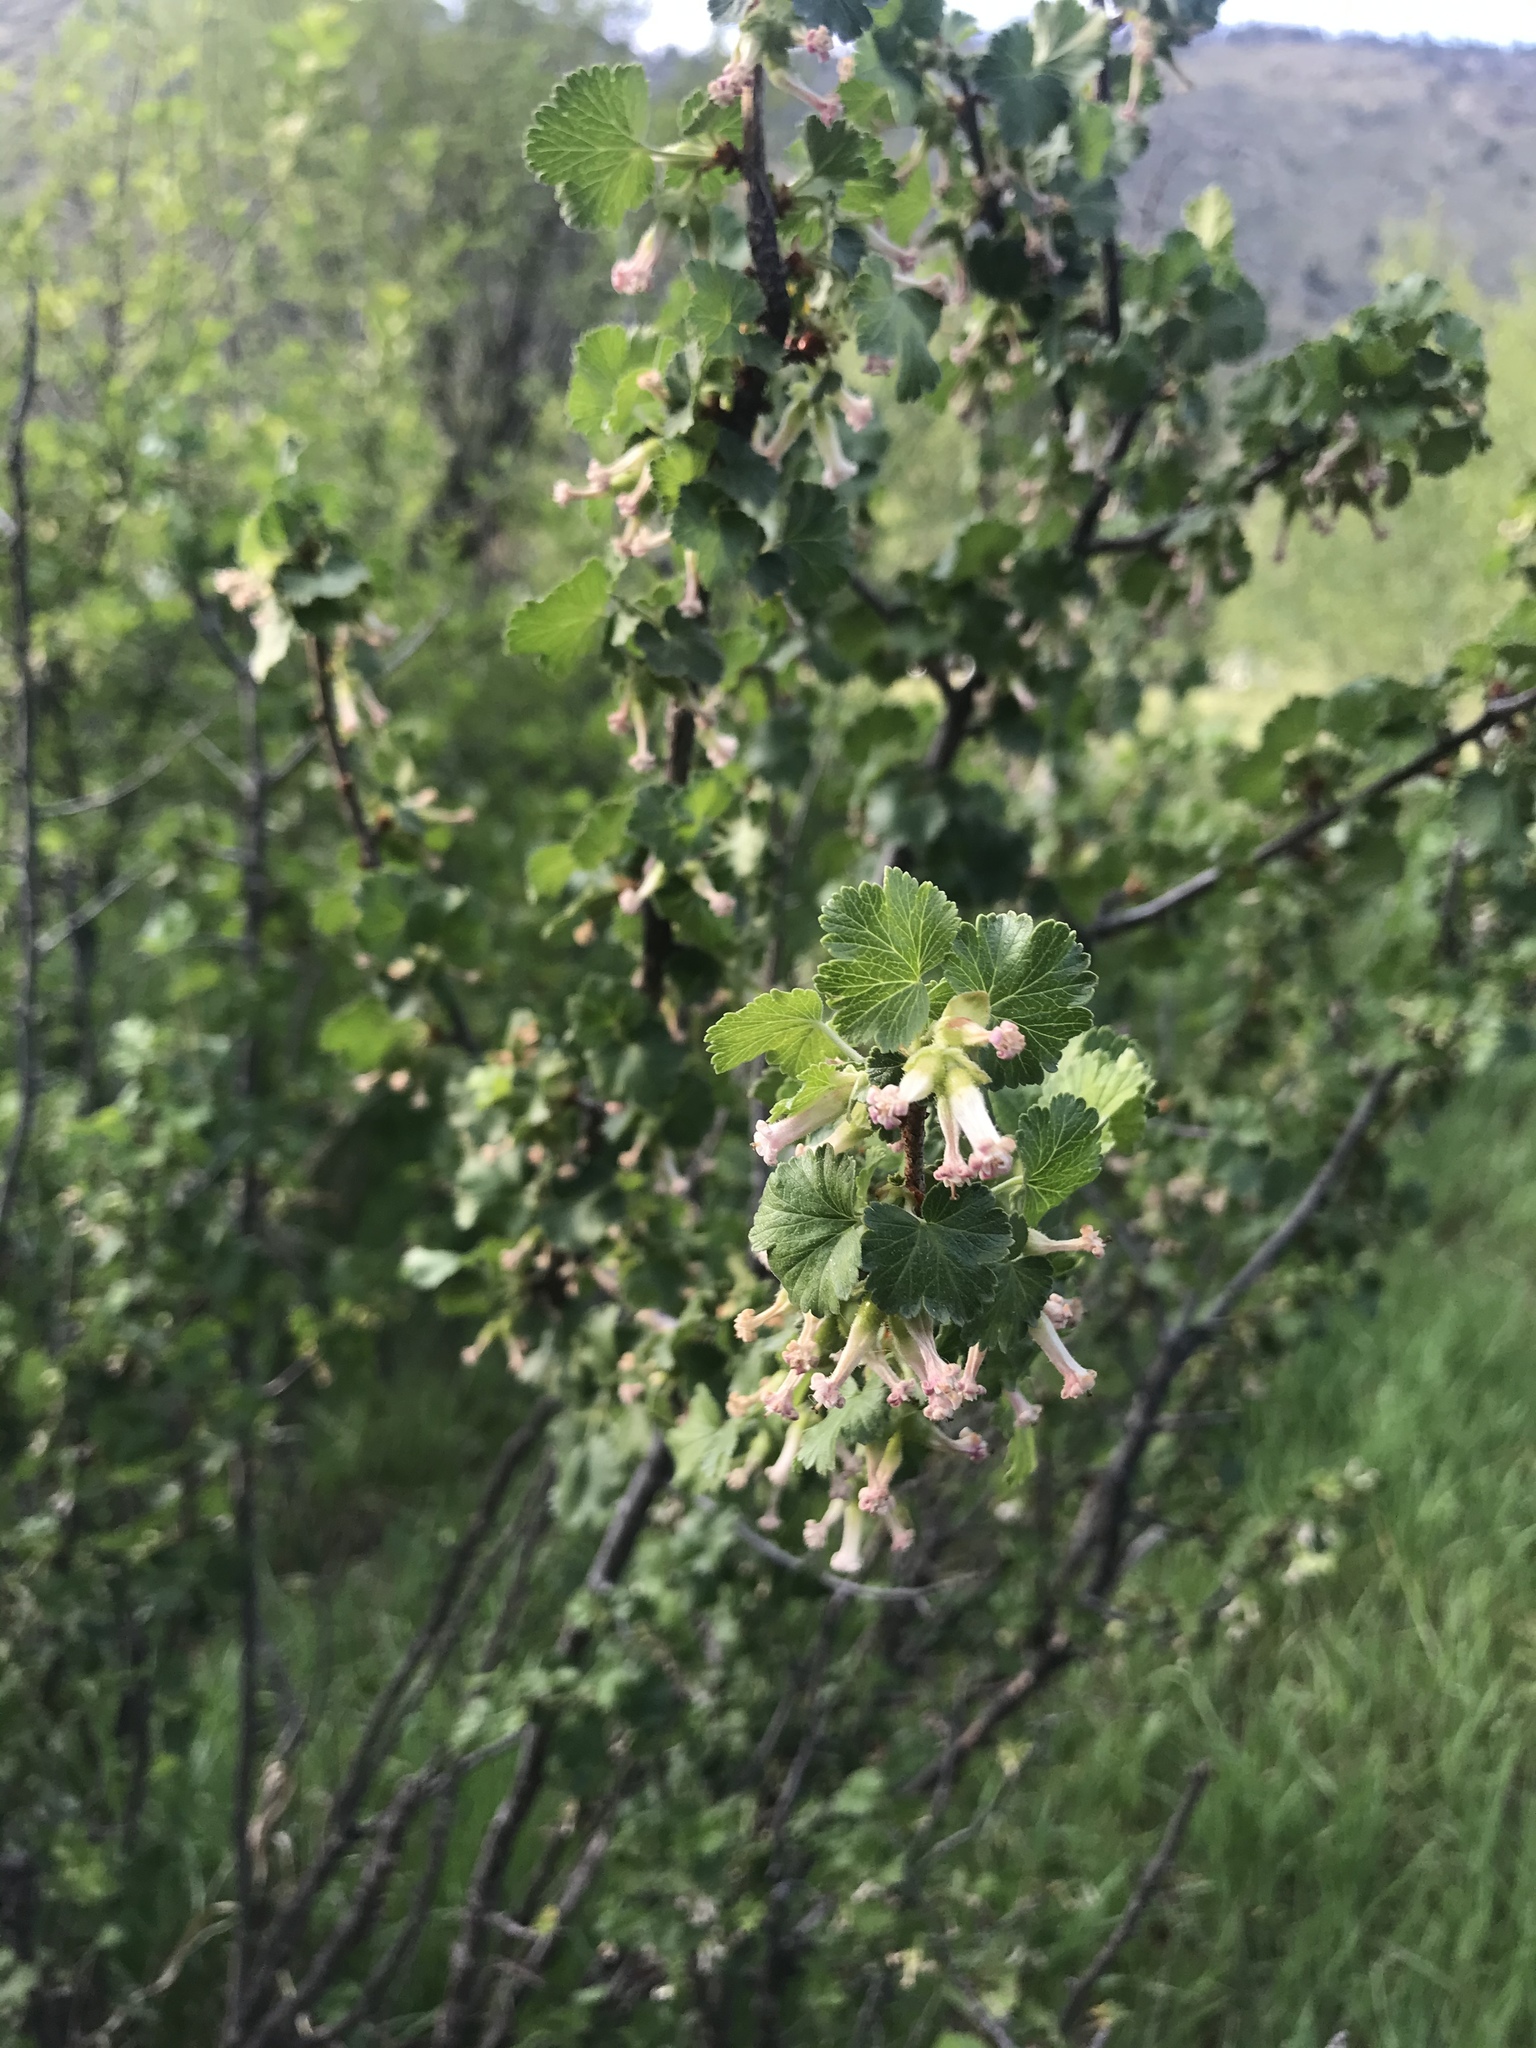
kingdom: Plantae
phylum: Tracheophyta
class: Magnoliopsida
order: Saxifragales
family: Grossulariaceae
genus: Ribes
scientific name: Ribes cereum
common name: Wax currant
